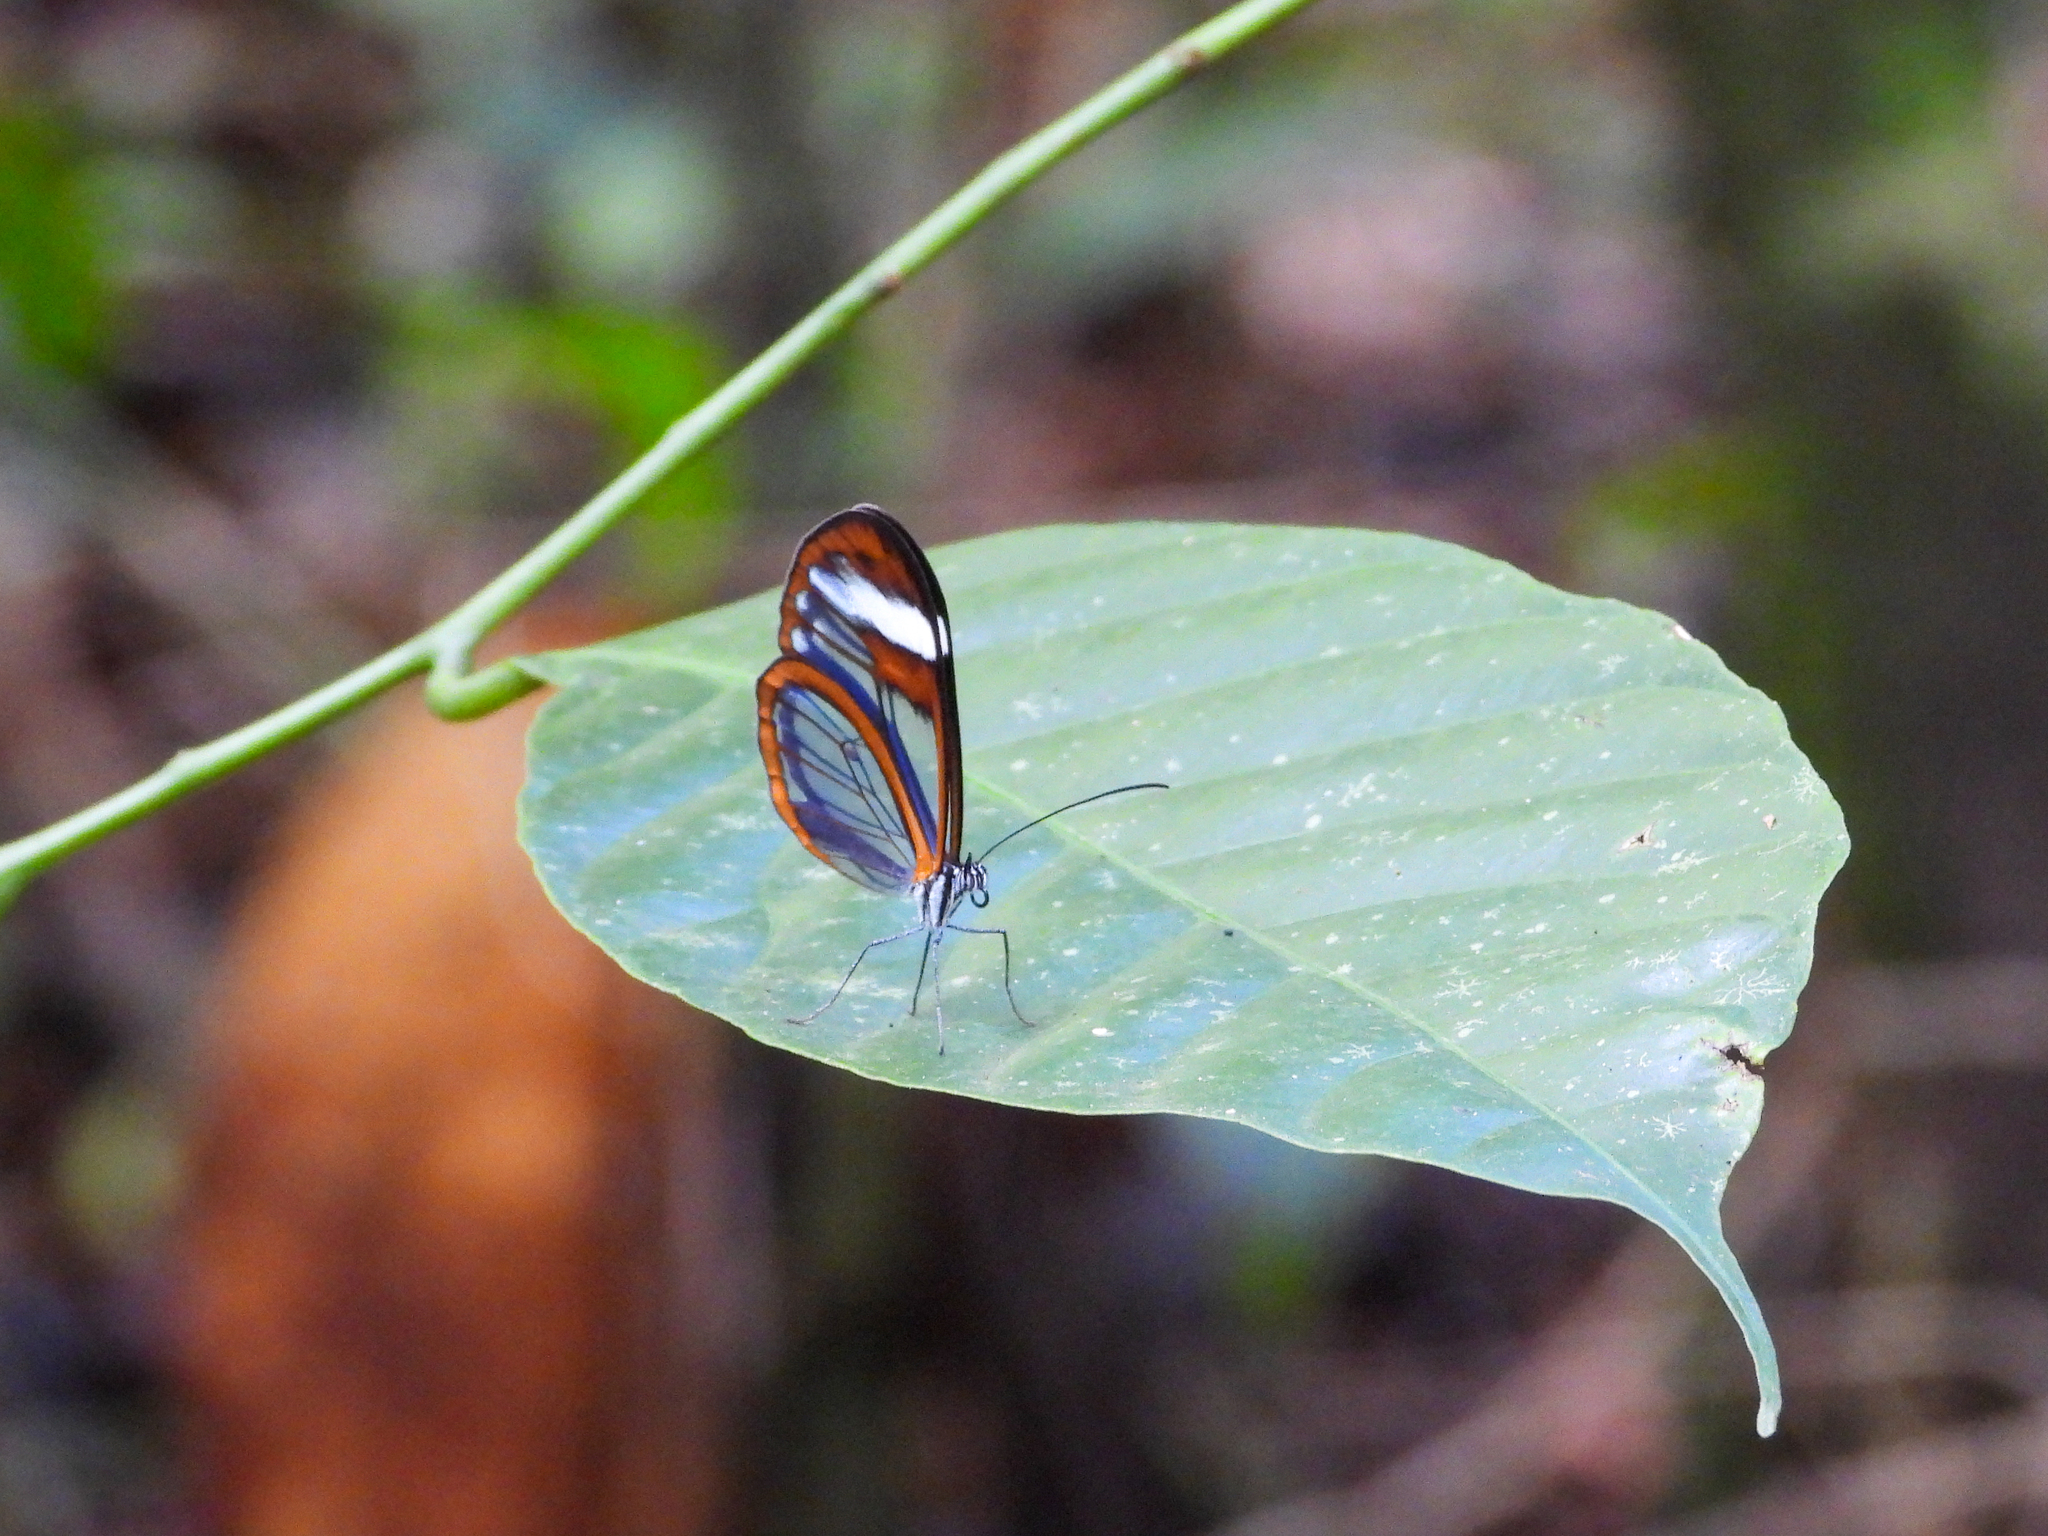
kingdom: Animalia
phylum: Arthropoda
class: Insecta
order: Lepidoptera
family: Nymphalidae
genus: Hypoleria
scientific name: Hypoleria lavinia
